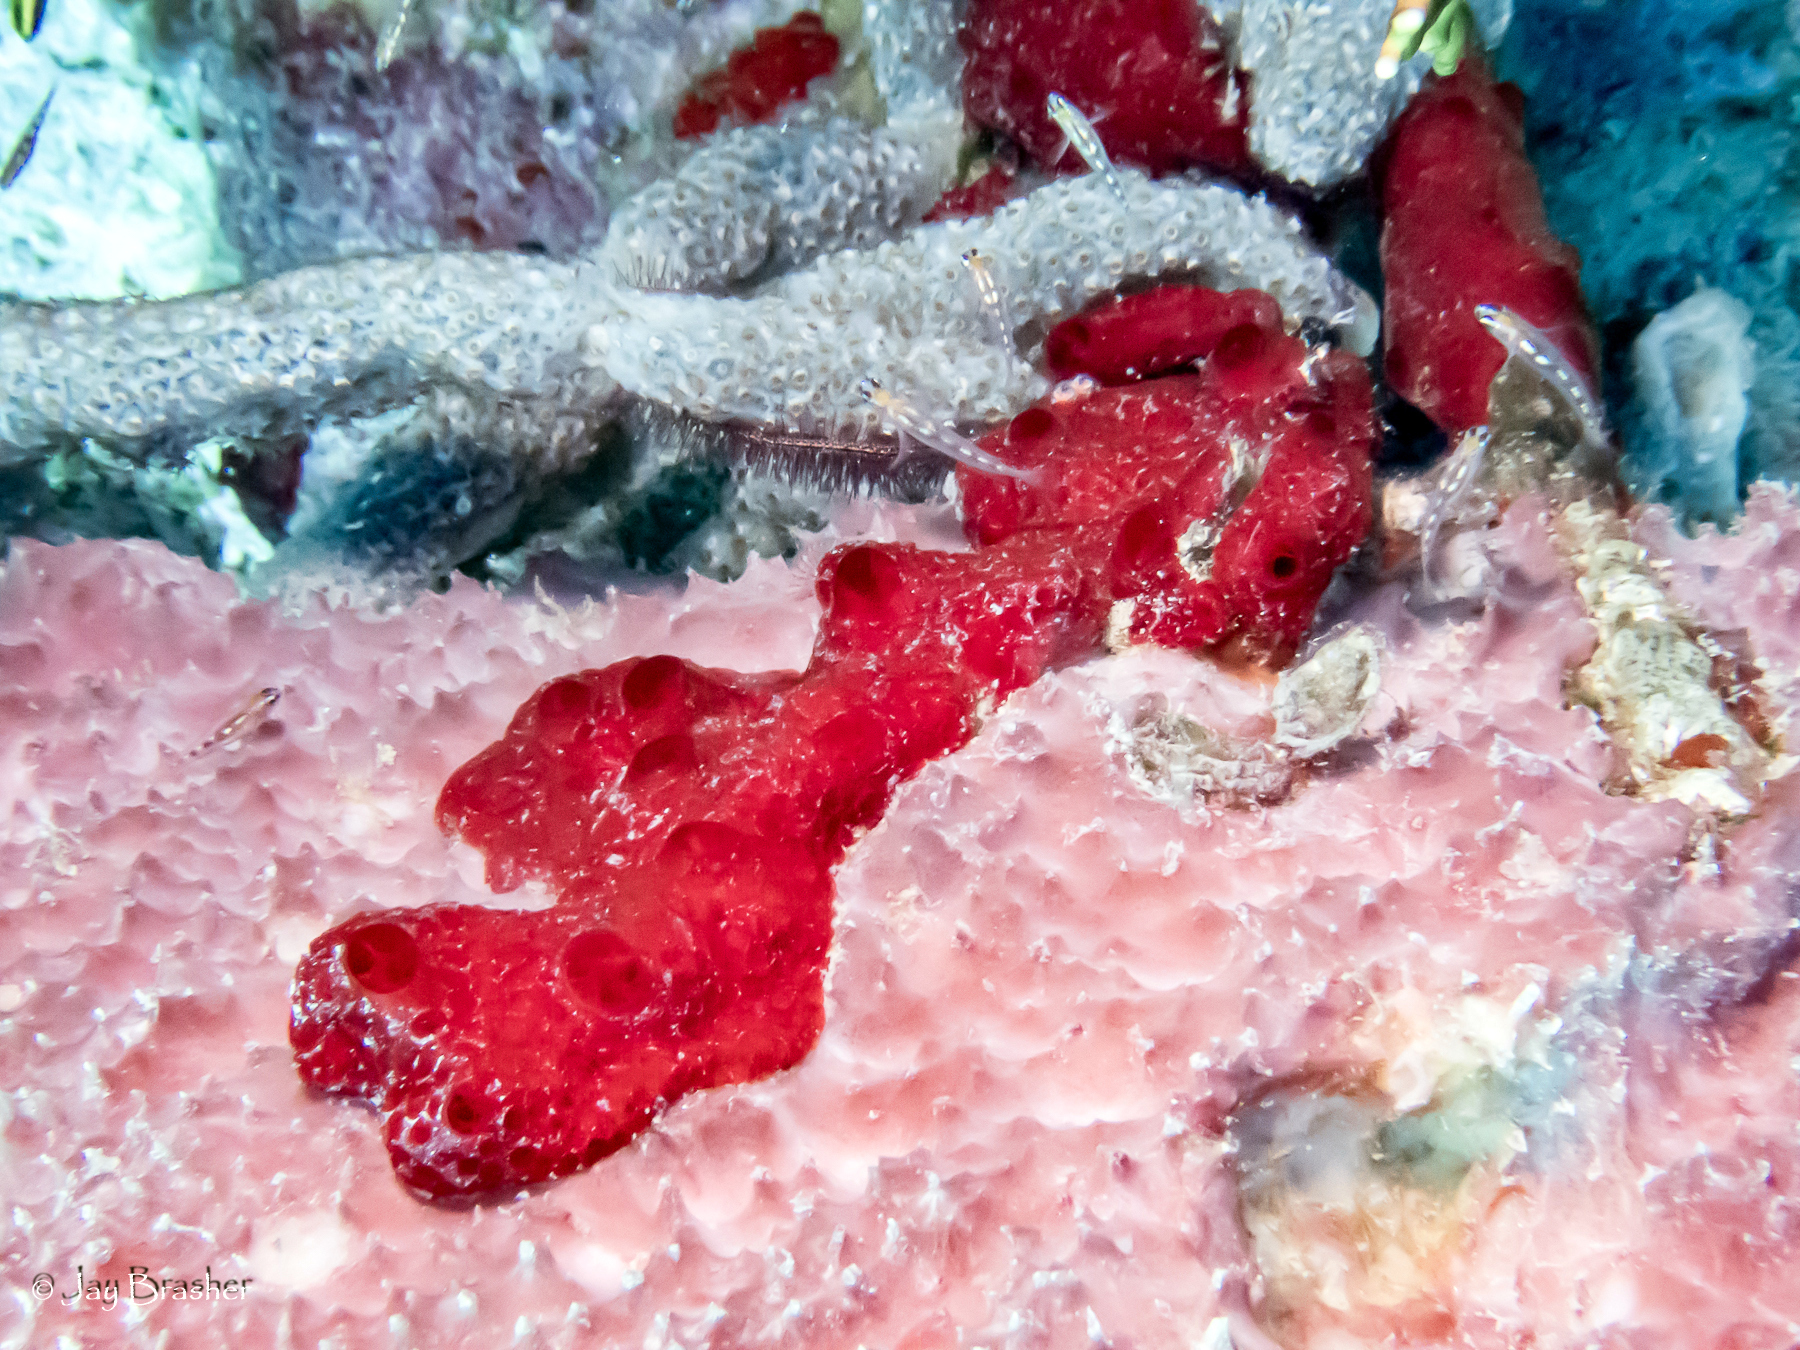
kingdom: Animalia
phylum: Porifera
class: Demospongiae
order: Poecilosclerida
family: Hymedesmiidae
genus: Phorbas
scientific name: Phorbas amaranthus
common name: Red sieve encrusting sponge
